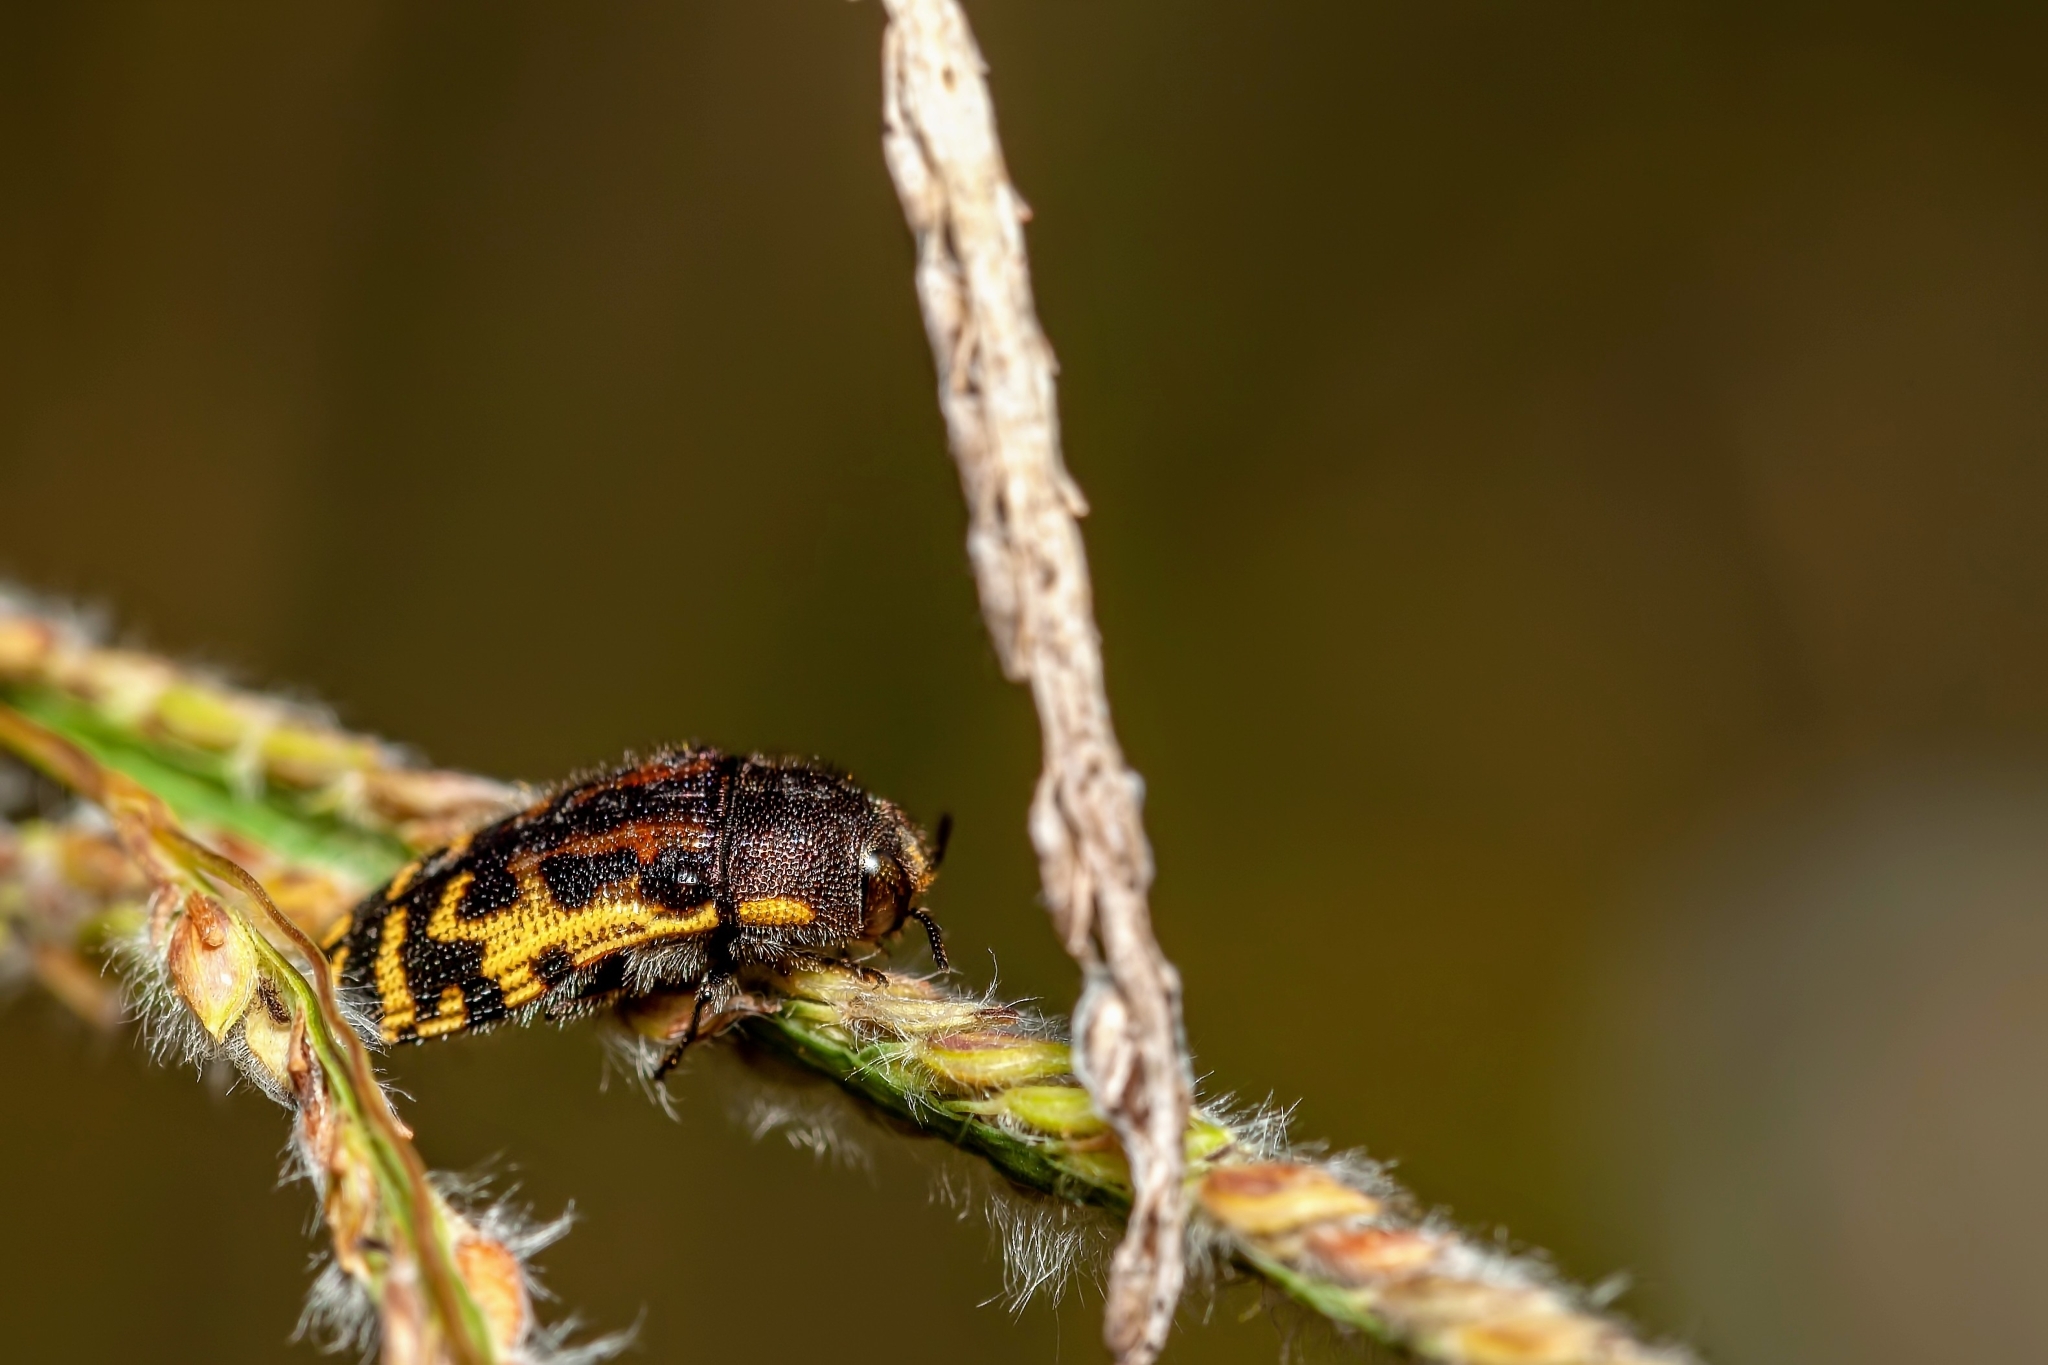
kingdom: Animalia
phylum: Arthropoda
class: Insecta
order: Coleoptera
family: Buprestidae
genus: Acmaeodera
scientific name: Acmaeodera pulchella
